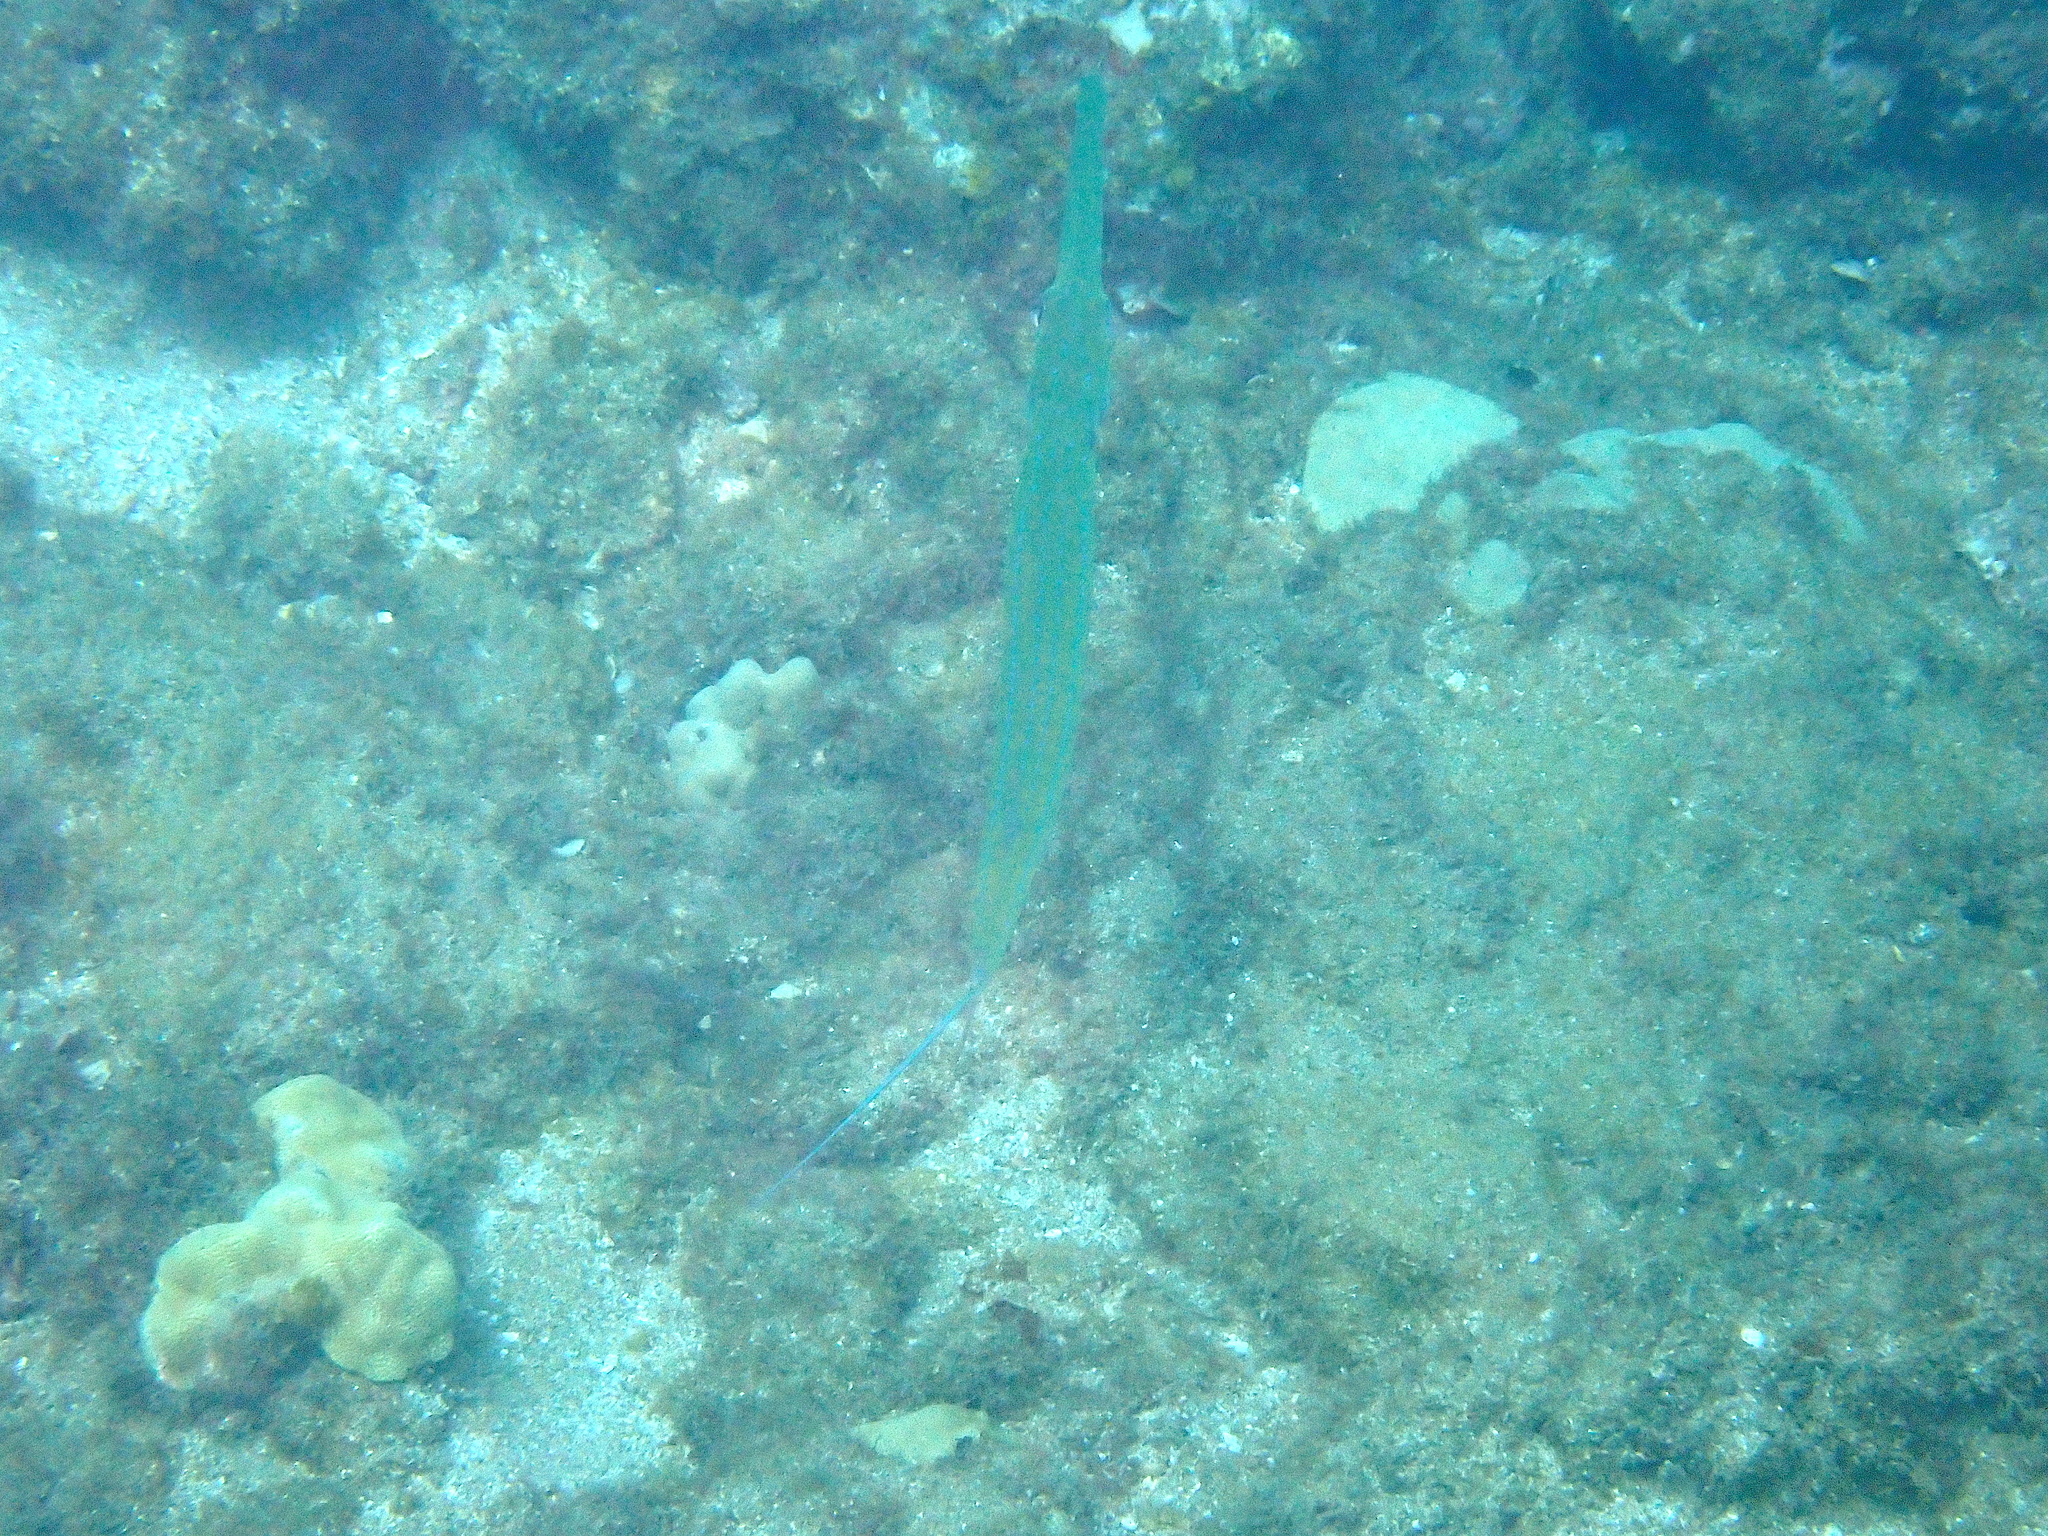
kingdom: Animalia
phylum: Chordata
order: Syngnathiformes
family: Fistulariidae
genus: Fistularia
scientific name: Fistularia commersonii
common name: Bluespotted cornetfish
